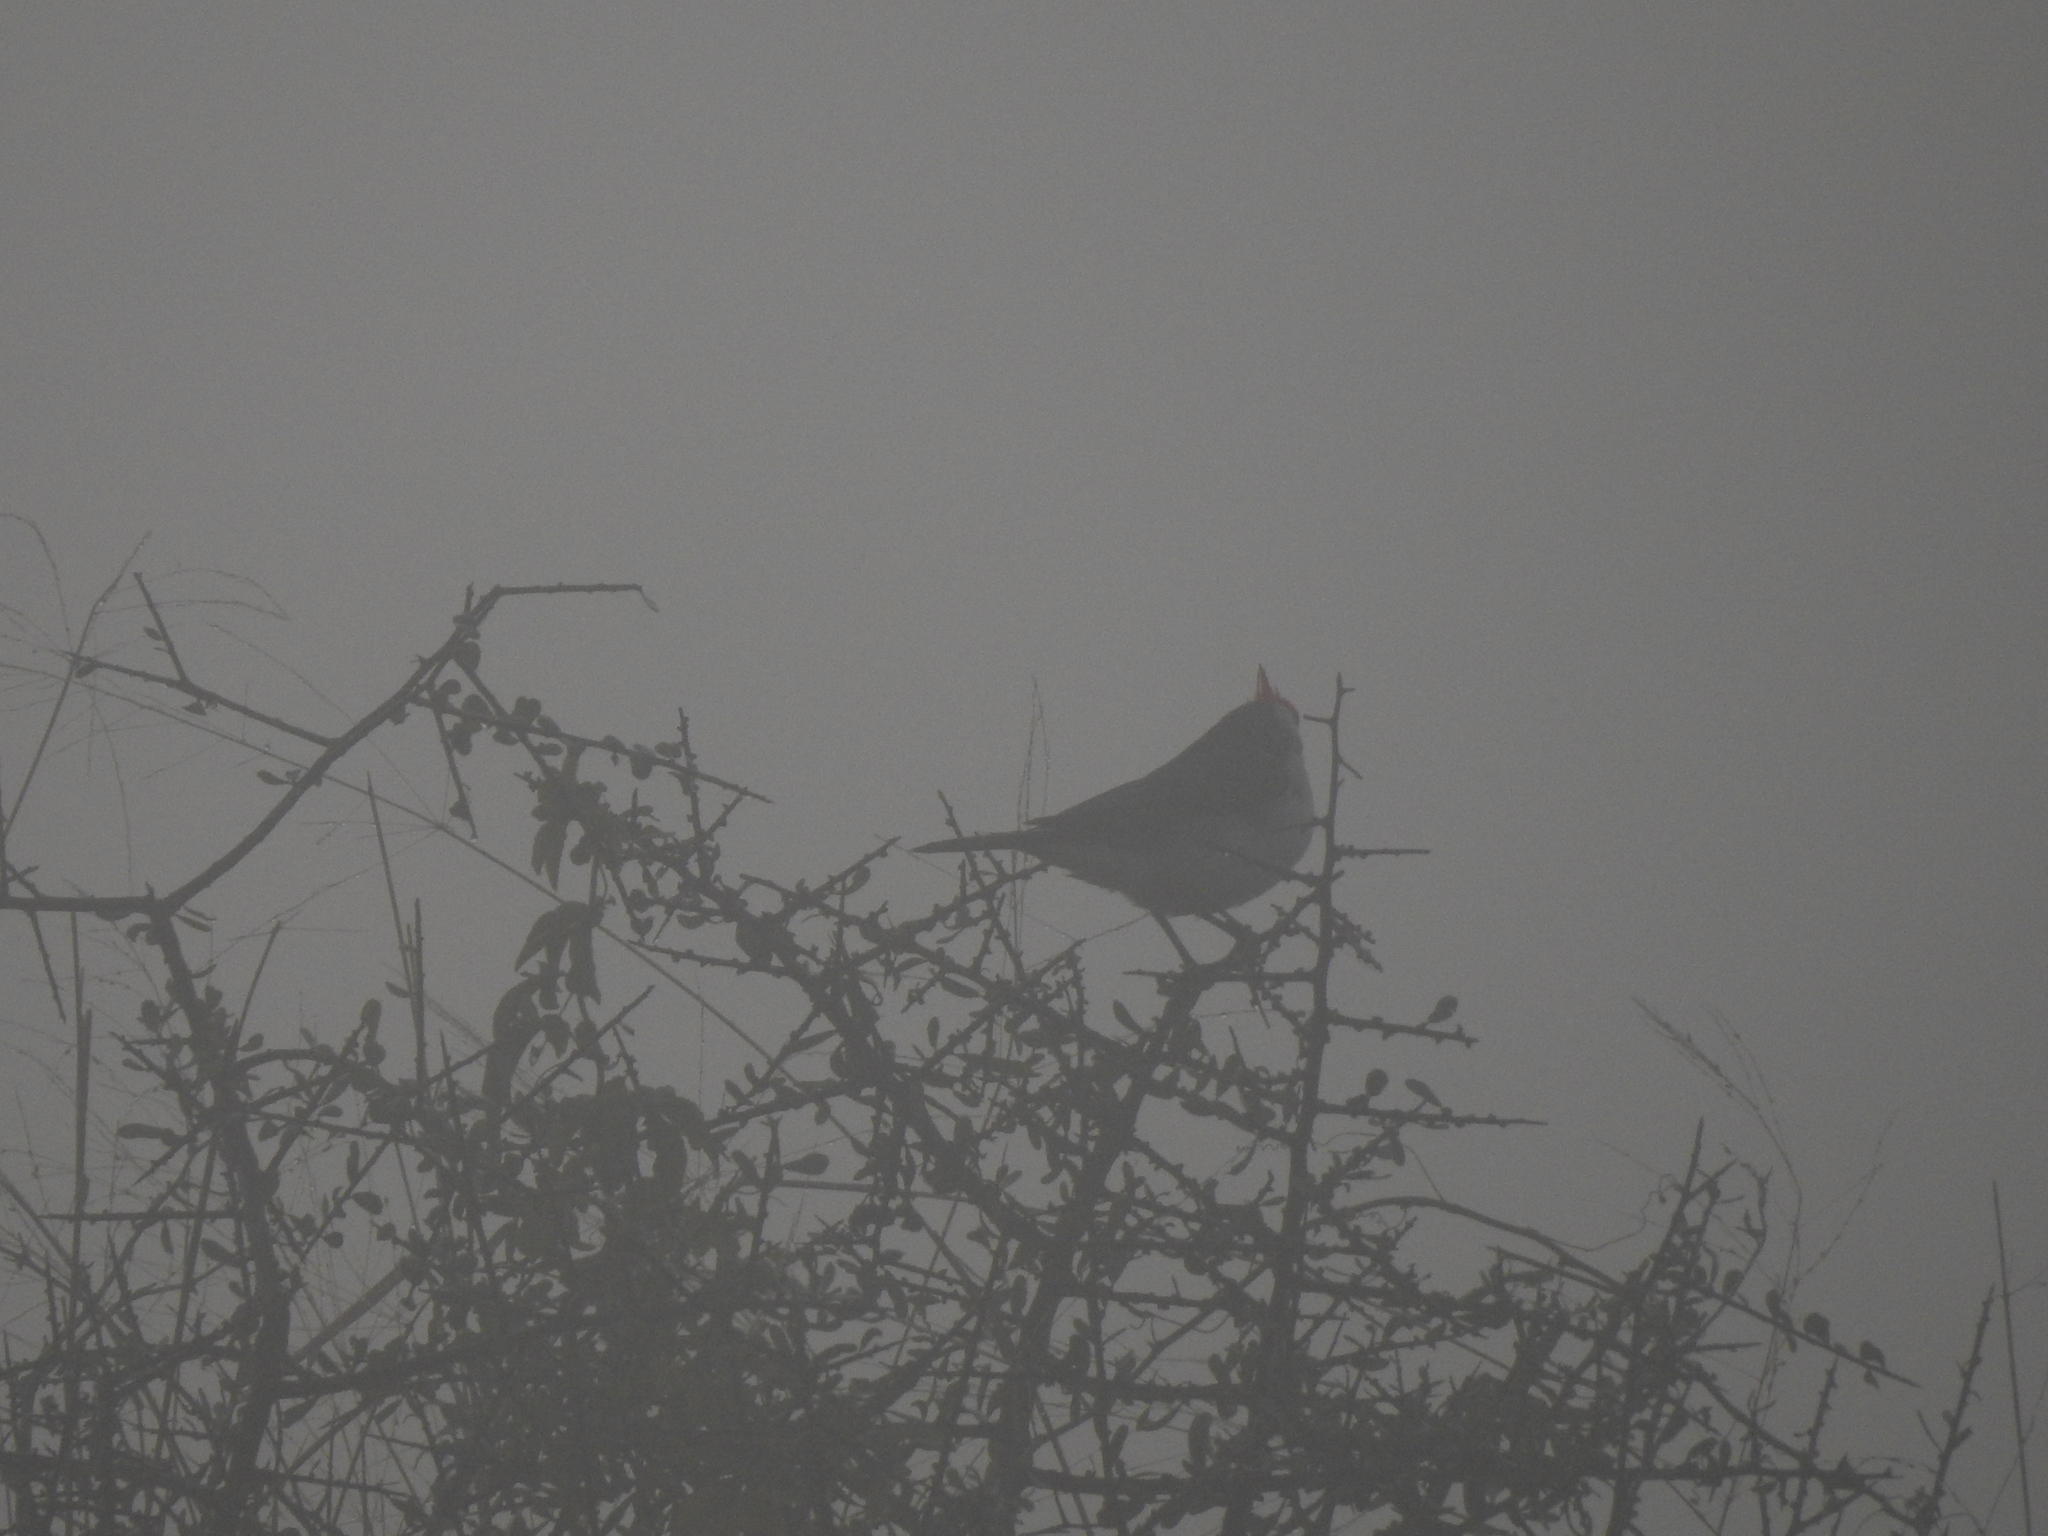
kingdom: Animalia
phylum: Chordata
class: Aves
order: Passeriformes
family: Thraupidae
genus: Paroaria
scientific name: Paroaria coronata
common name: Red-crested cardinal
